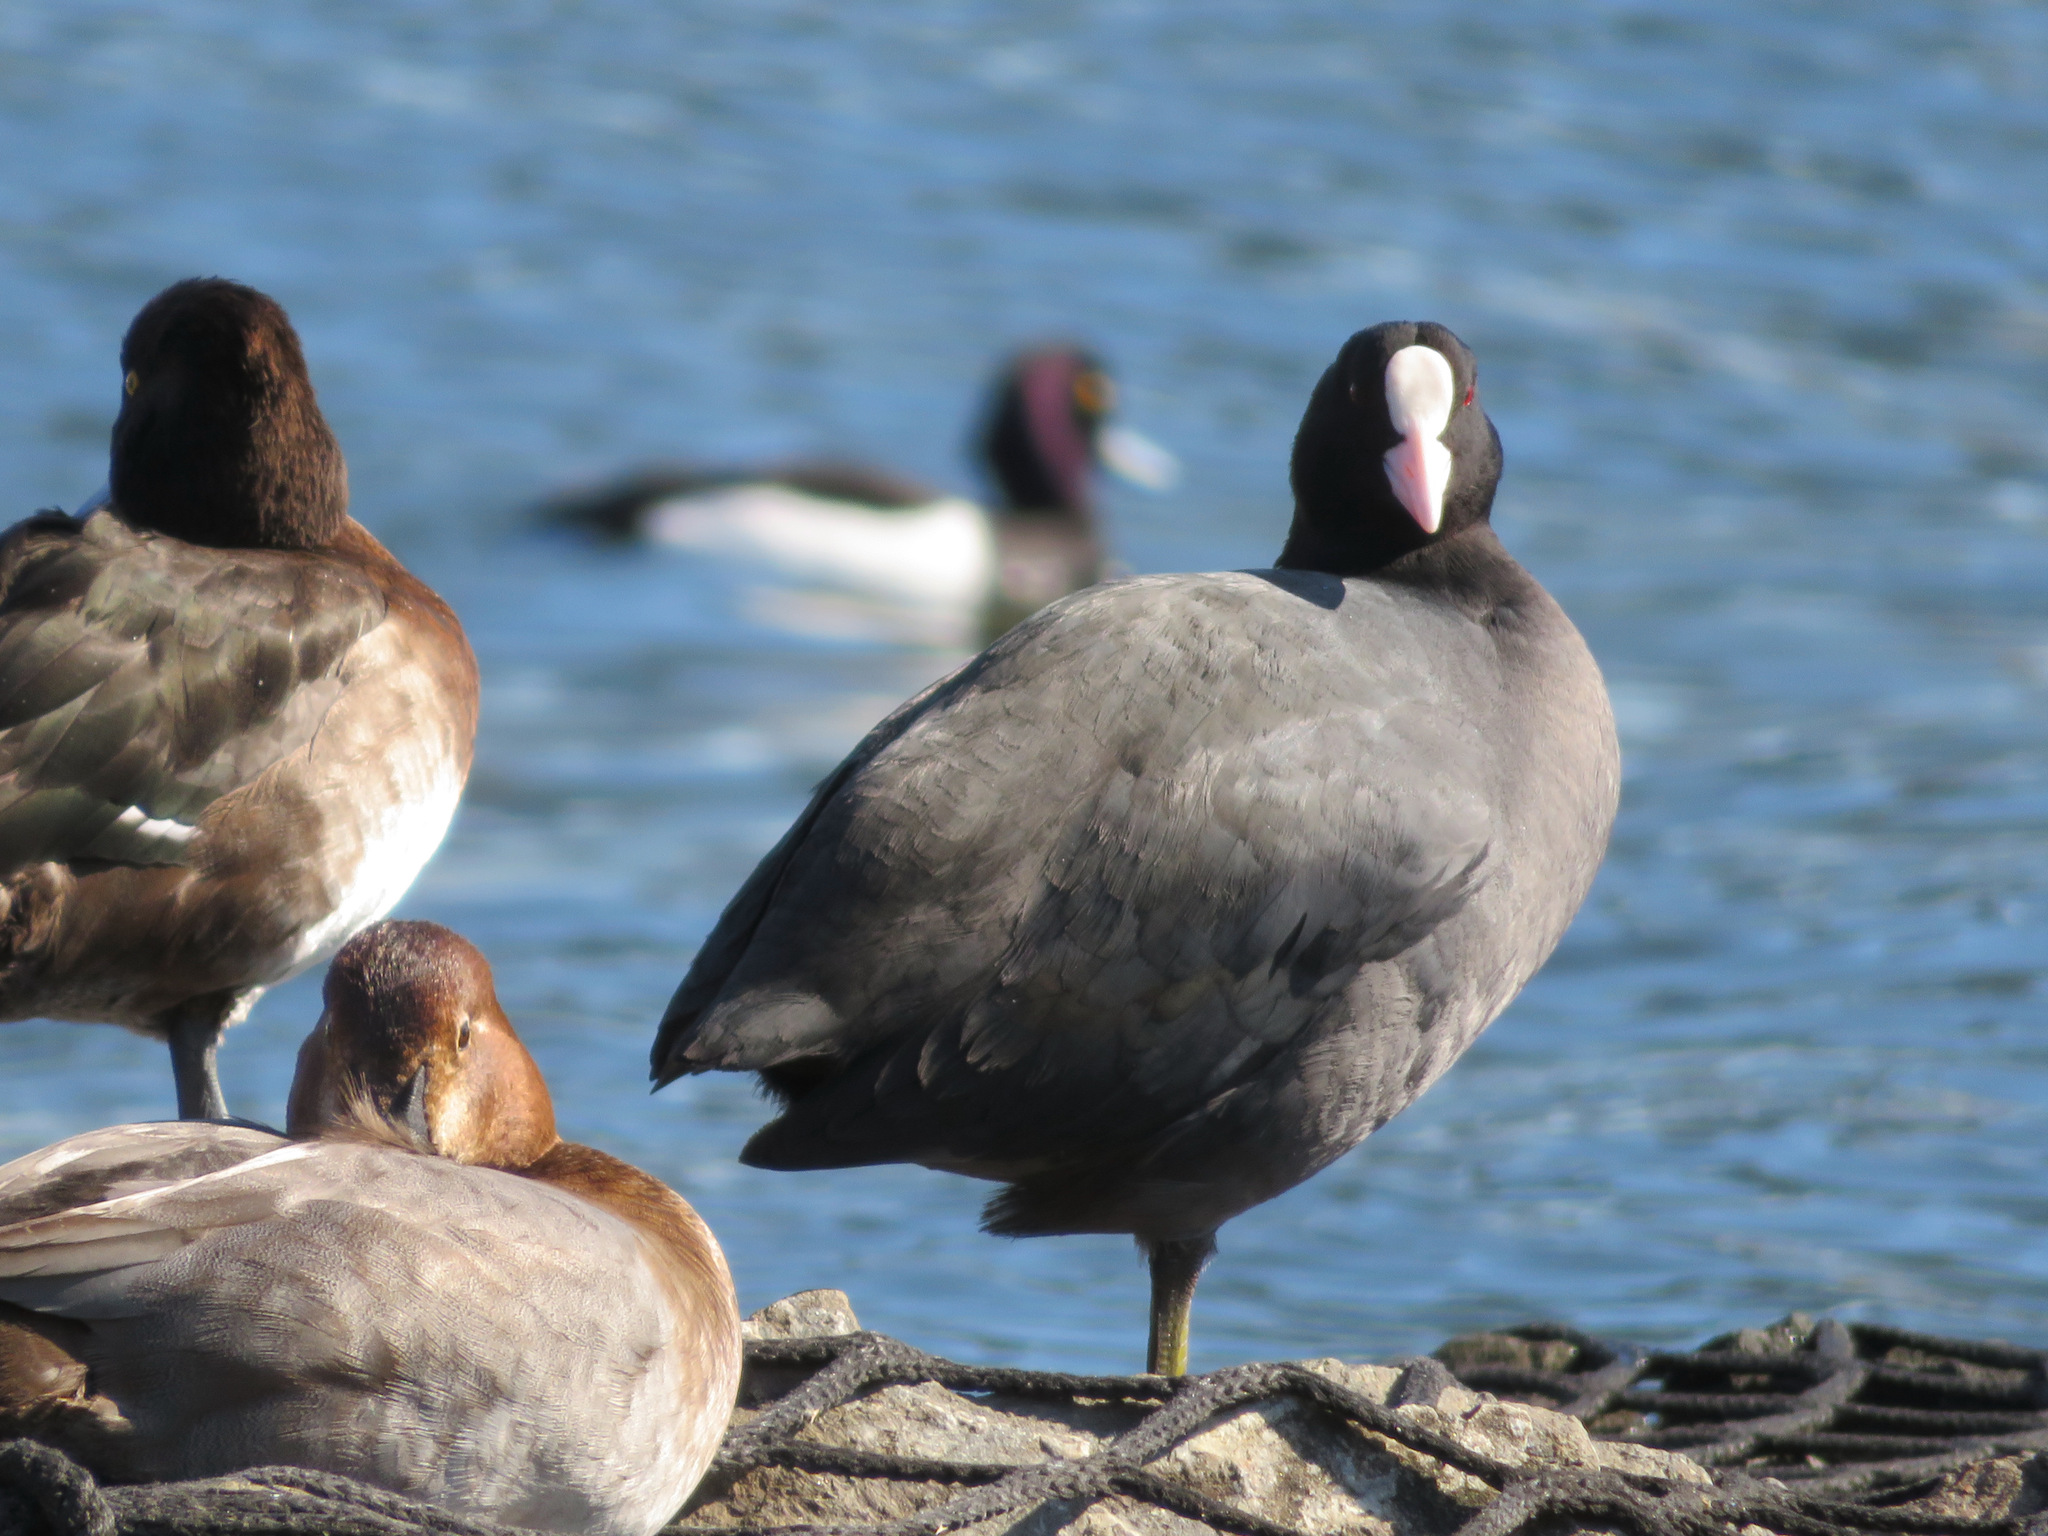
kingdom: Animalia
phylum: Chordata
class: Aves
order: Gruiformes
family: Rallidae
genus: Fulica
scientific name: Fulica atra
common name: Eurasian coot
